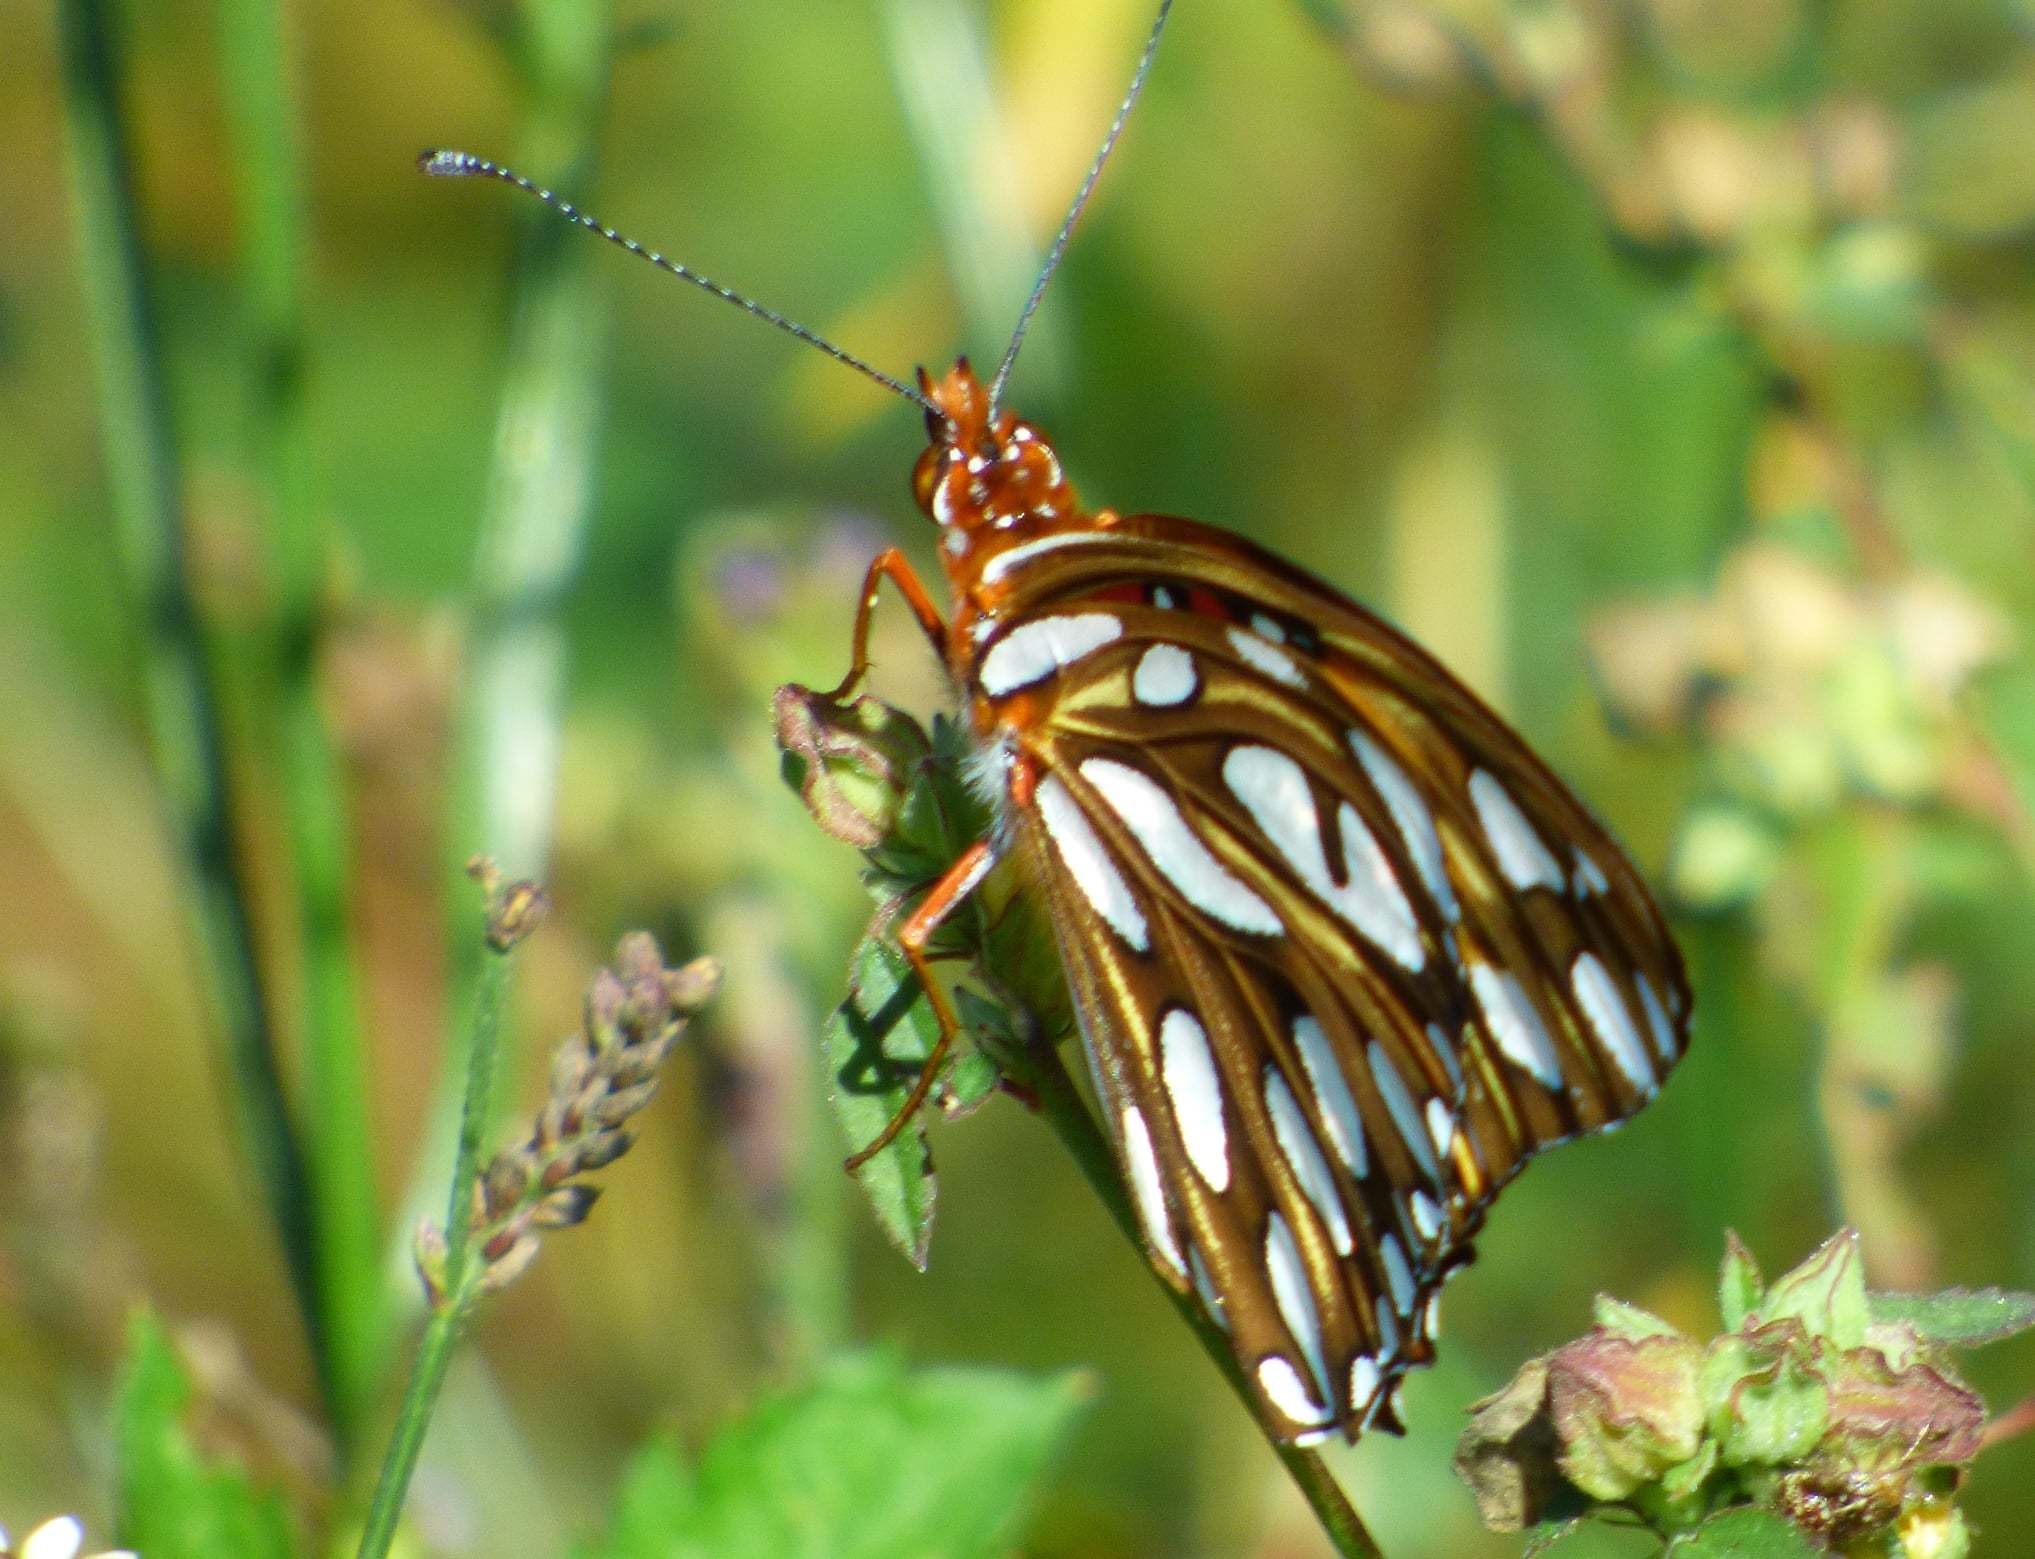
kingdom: Animalia
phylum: Arthropoda
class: Insecta
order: Lepidoptera
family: Nymphalidae
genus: Dione
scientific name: Dione vanillae
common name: Gulf fritillary
